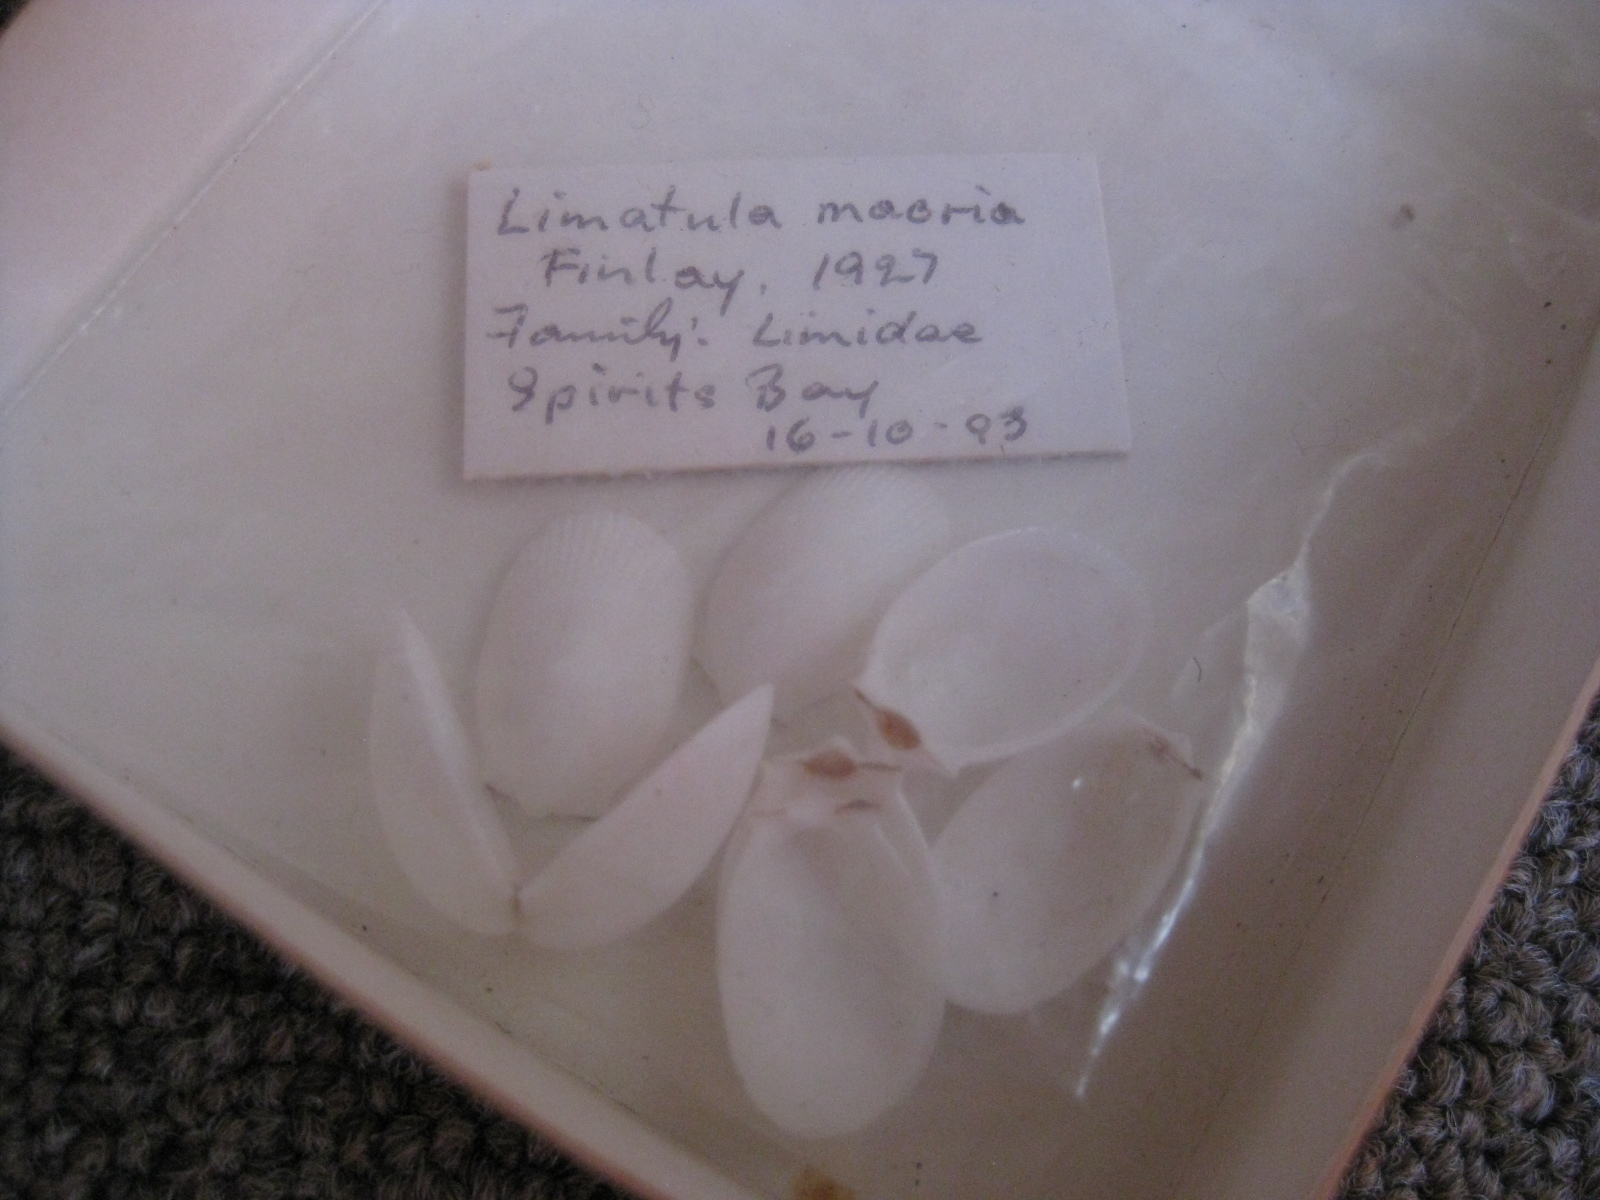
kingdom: Animalia
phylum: Mollusca
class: Bivalvia
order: Limida
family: Limidae
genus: Limatula
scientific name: Limatula maoria
